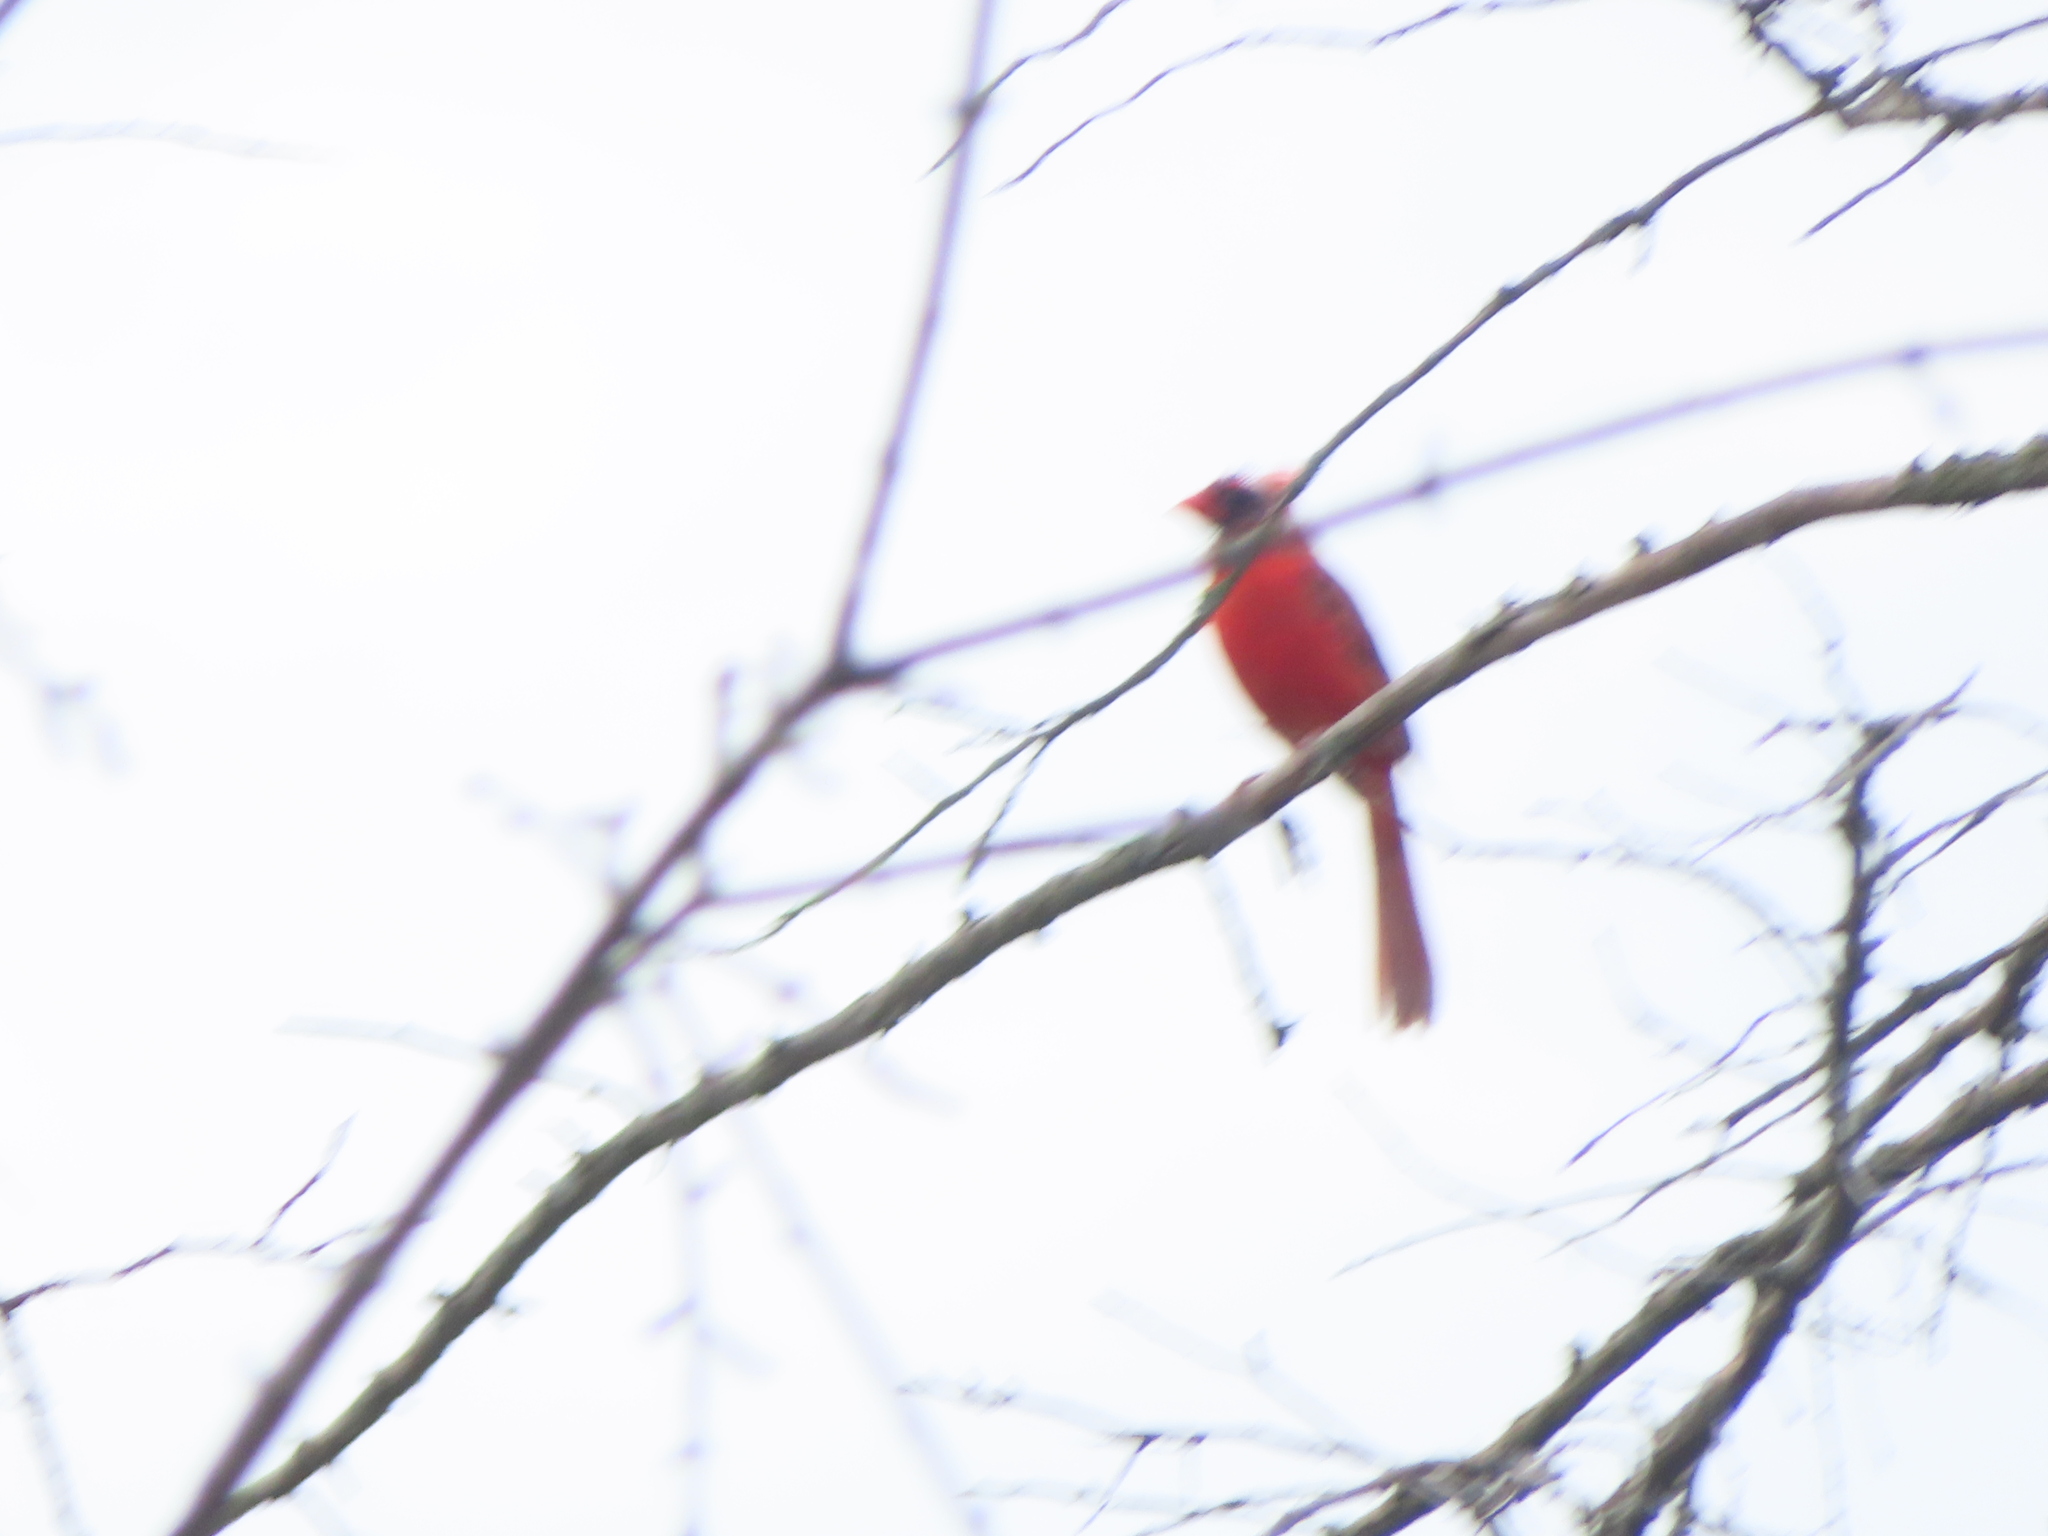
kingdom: Animalia
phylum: Chordata
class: Aves
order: Passeriformes
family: Cardinalidae
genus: Cardinalis
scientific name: Cardinalis cardinalis
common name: Northern cardinal
